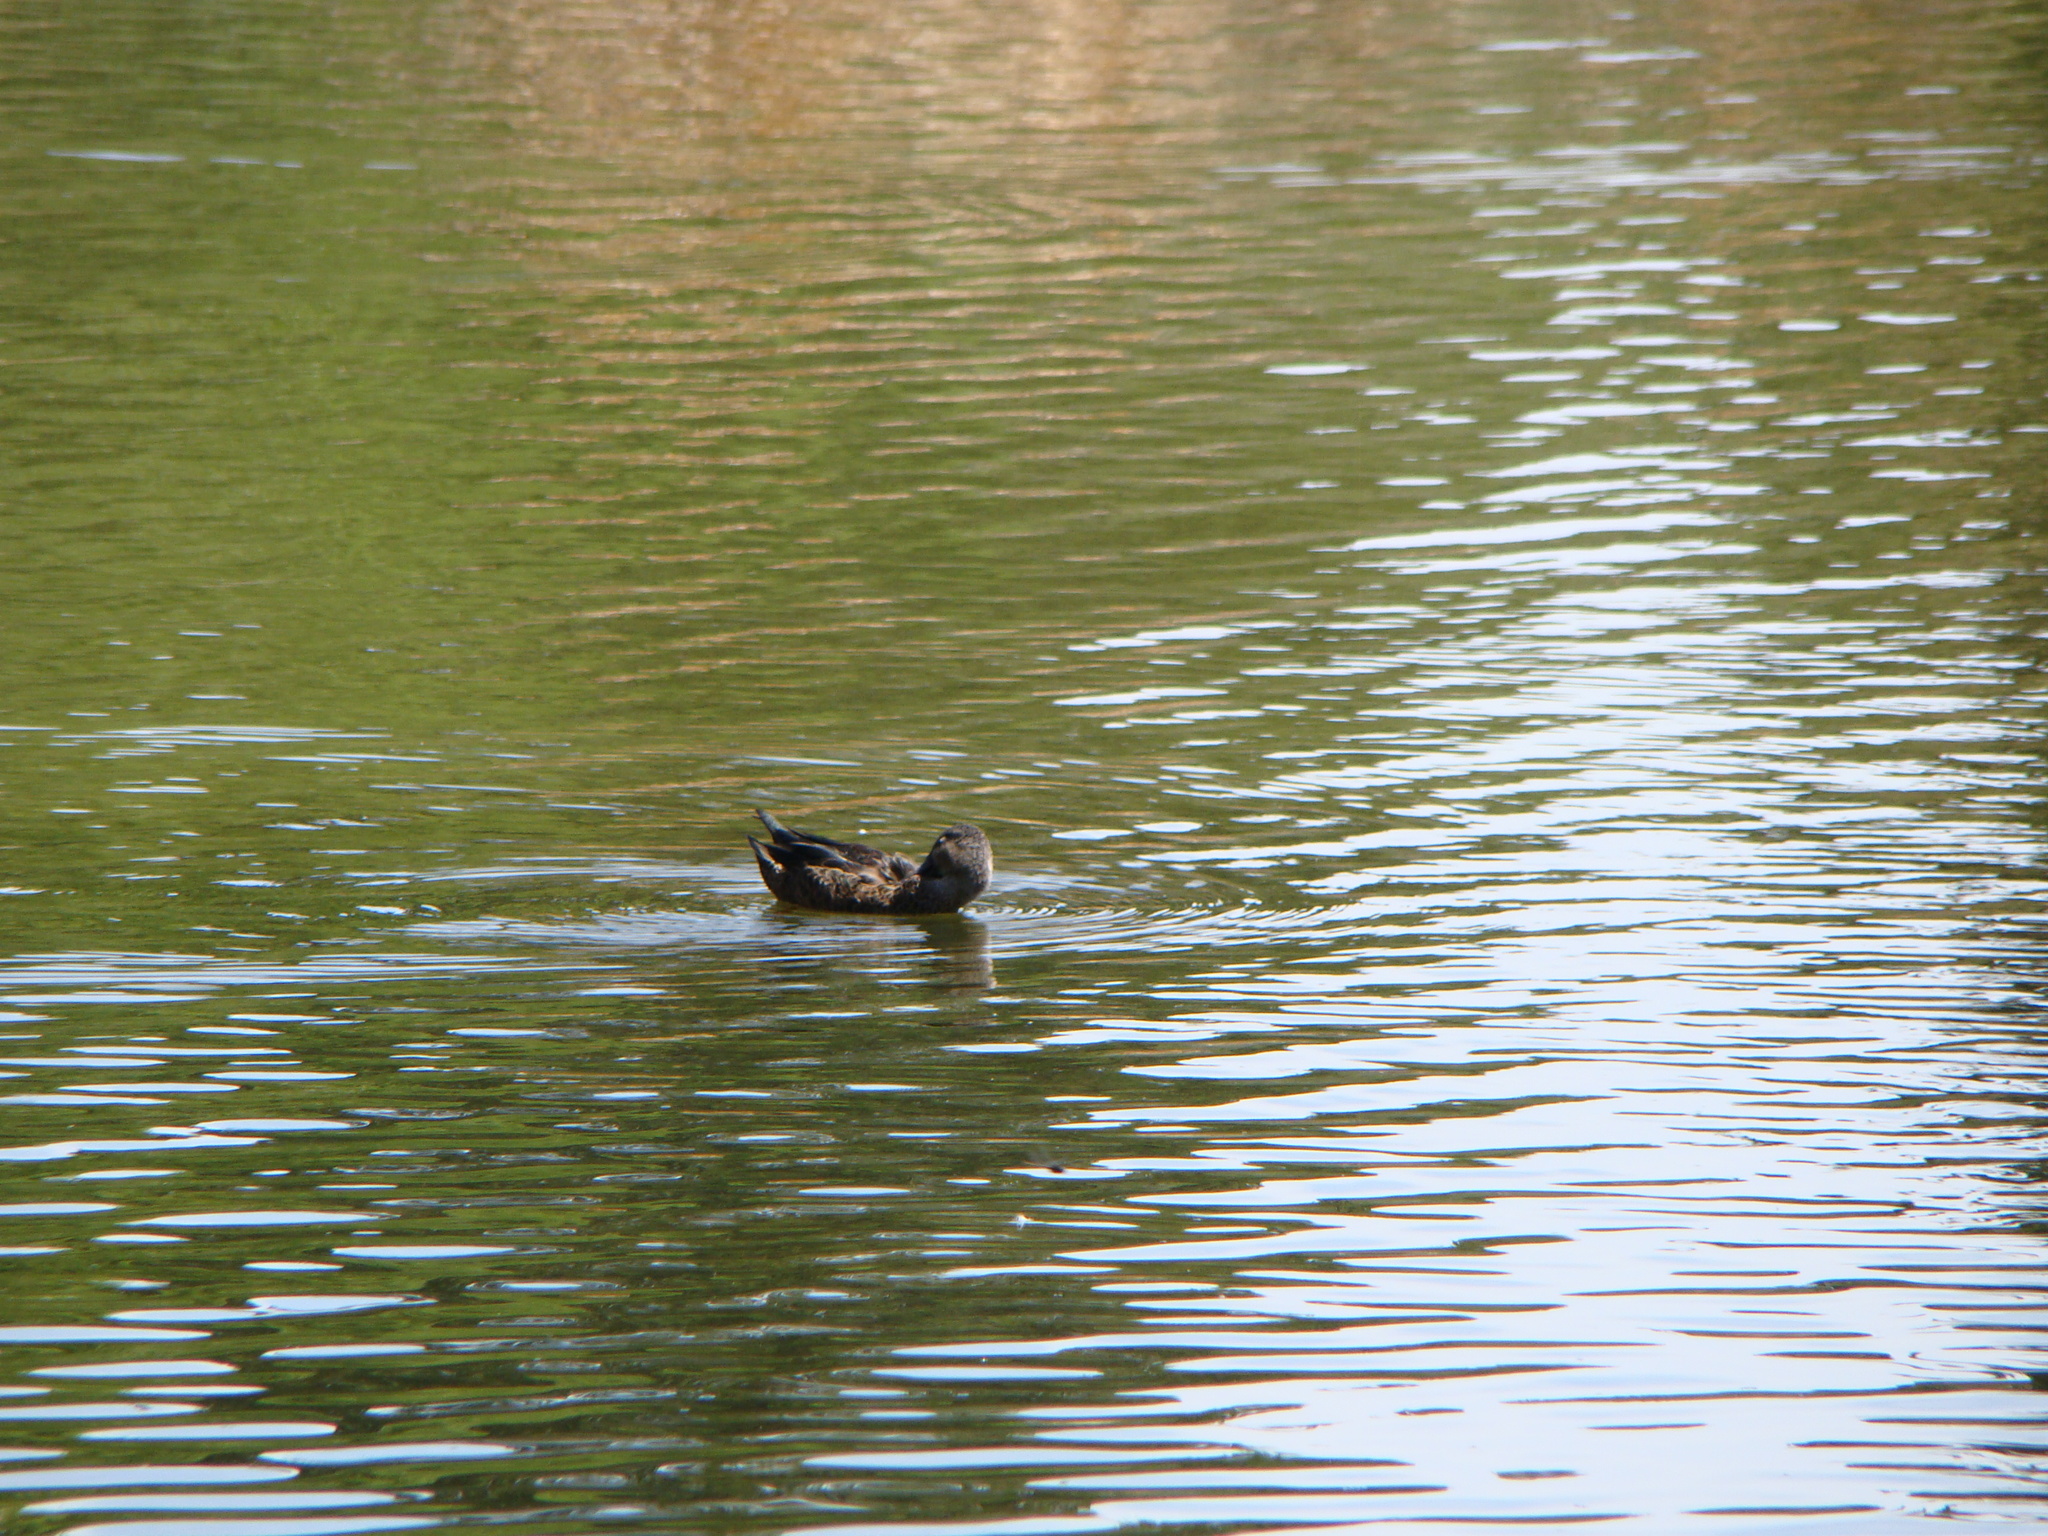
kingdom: Animalia
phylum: Chordata
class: Aves
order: Anseriformes
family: Anatidae
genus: Spatula
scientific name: Spatula rhynchotis
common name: Australian shoveler
